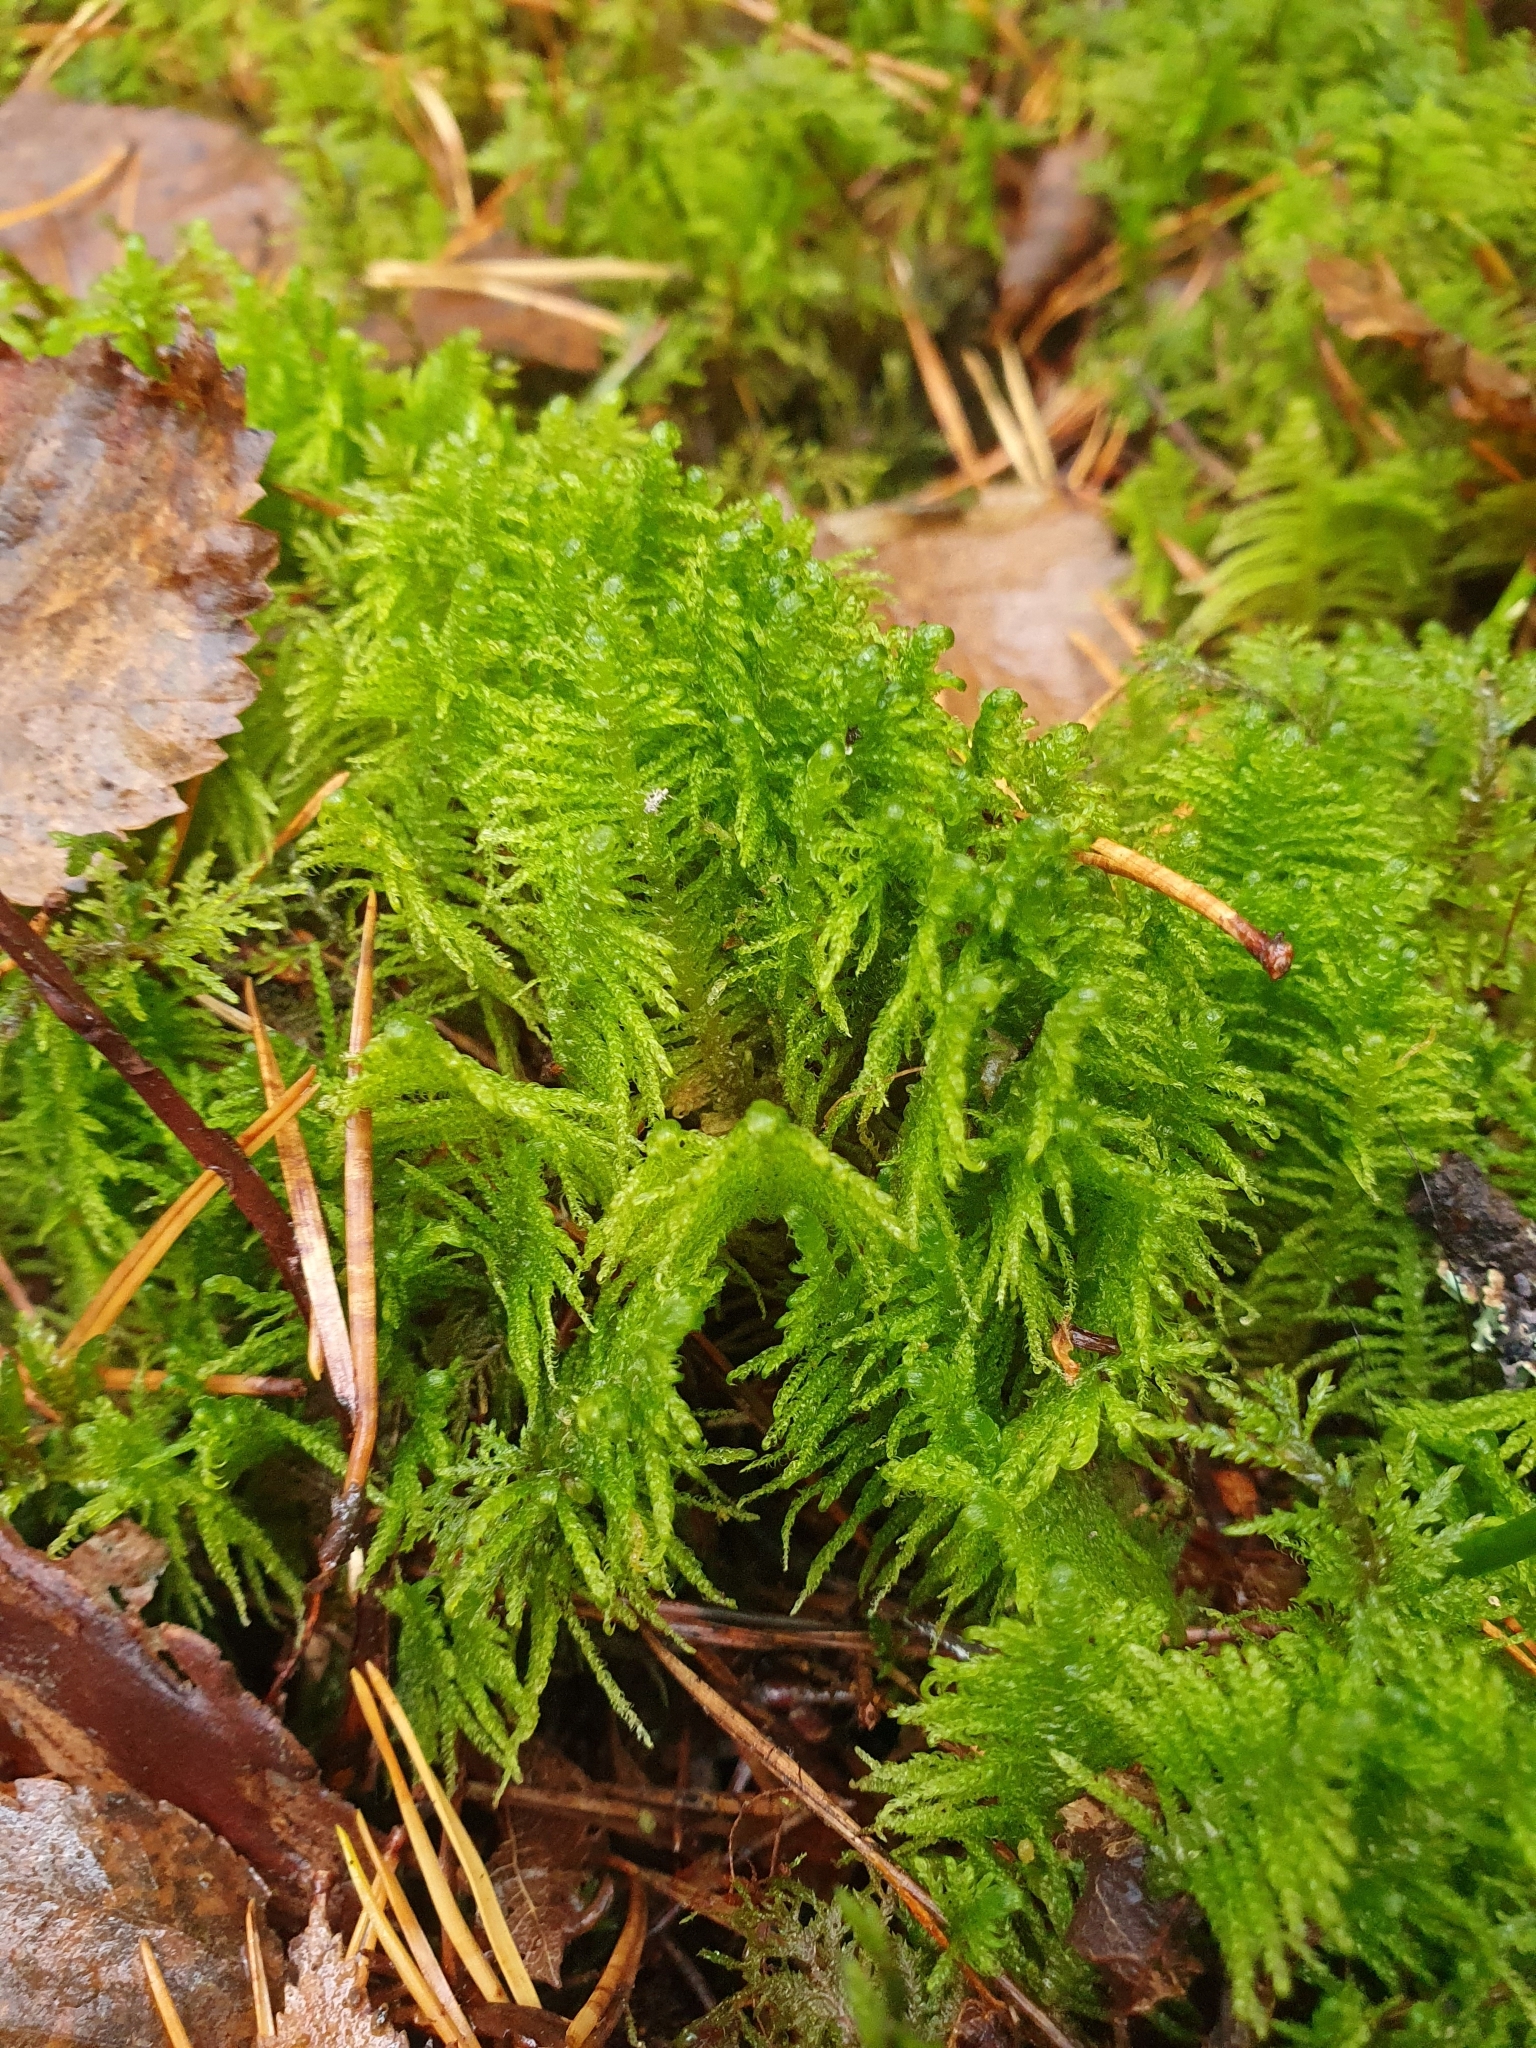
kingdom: Plantae
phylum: Bryophyta
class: Bryopsida
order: Hypnales
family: Pylaisiaceae
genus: Ptilium
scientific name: Ptilium crista-castrensis
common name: Knight's plume moss
